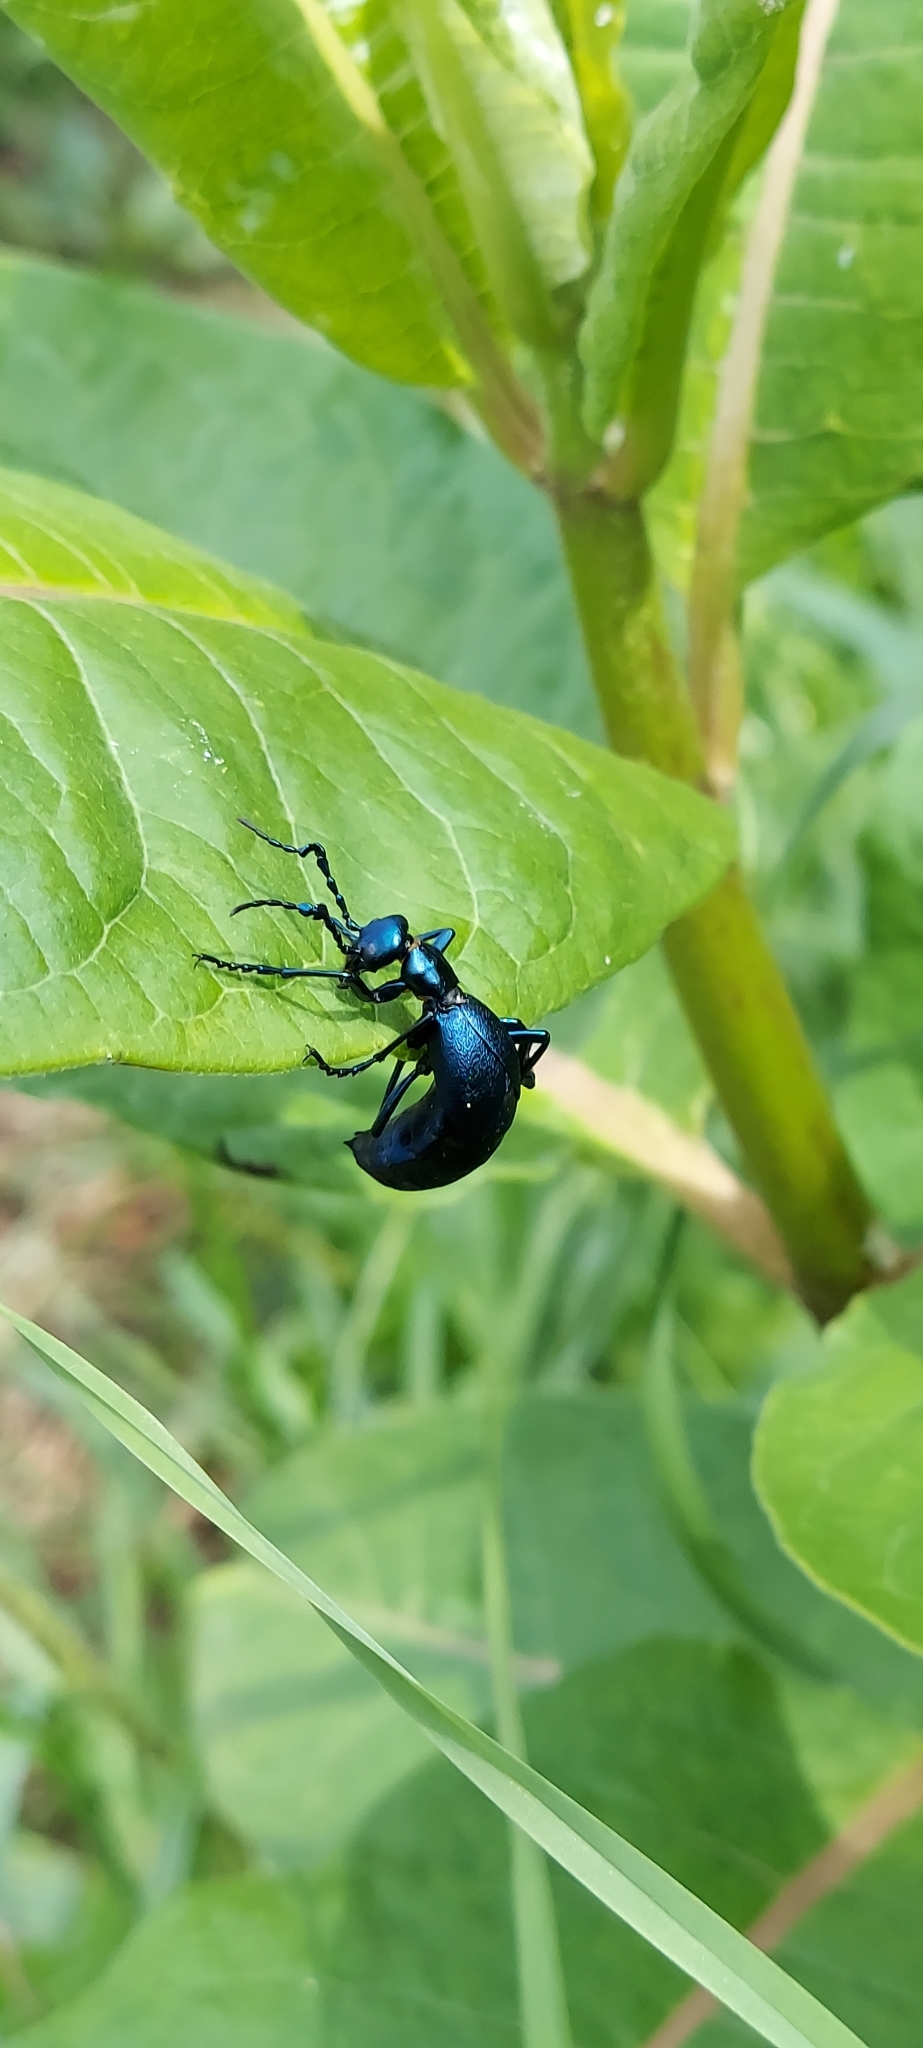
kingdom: Animalia
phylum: Arthropoda
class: Insecta
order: Coleoptera
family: Meloidae
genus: Meloe
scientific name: Meloe impressus
